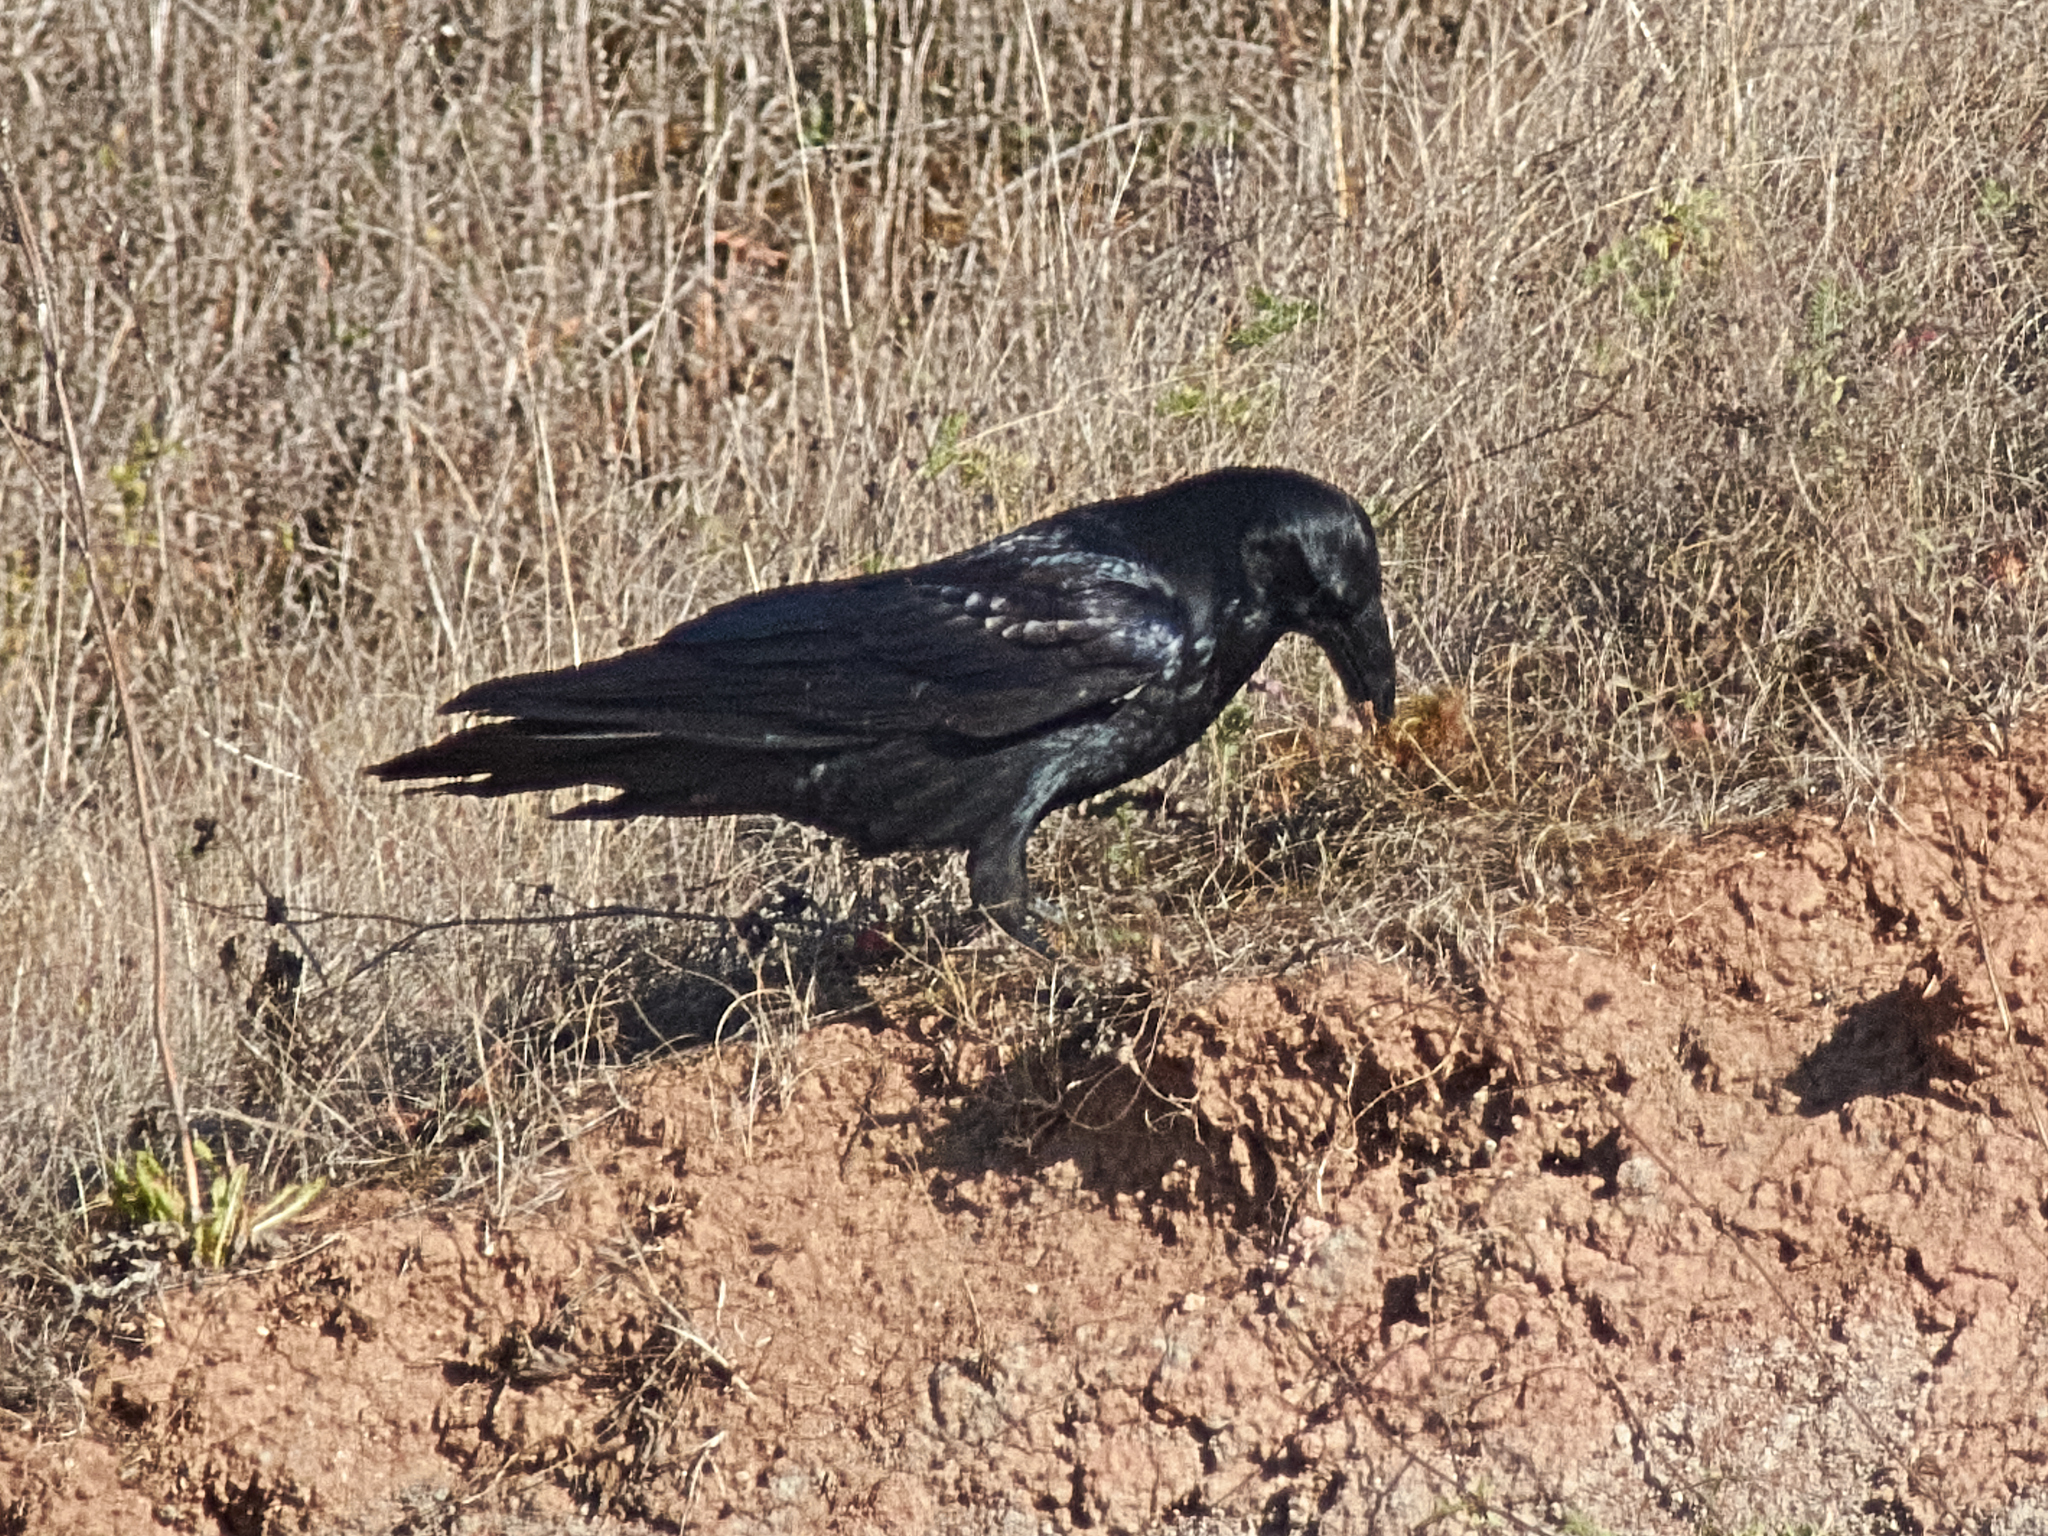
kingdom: Animalia
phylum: Chordata
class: Aves
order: Passeriformes
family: Corvidae
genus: Corvus
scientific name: Corvus corax
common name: Common raven
